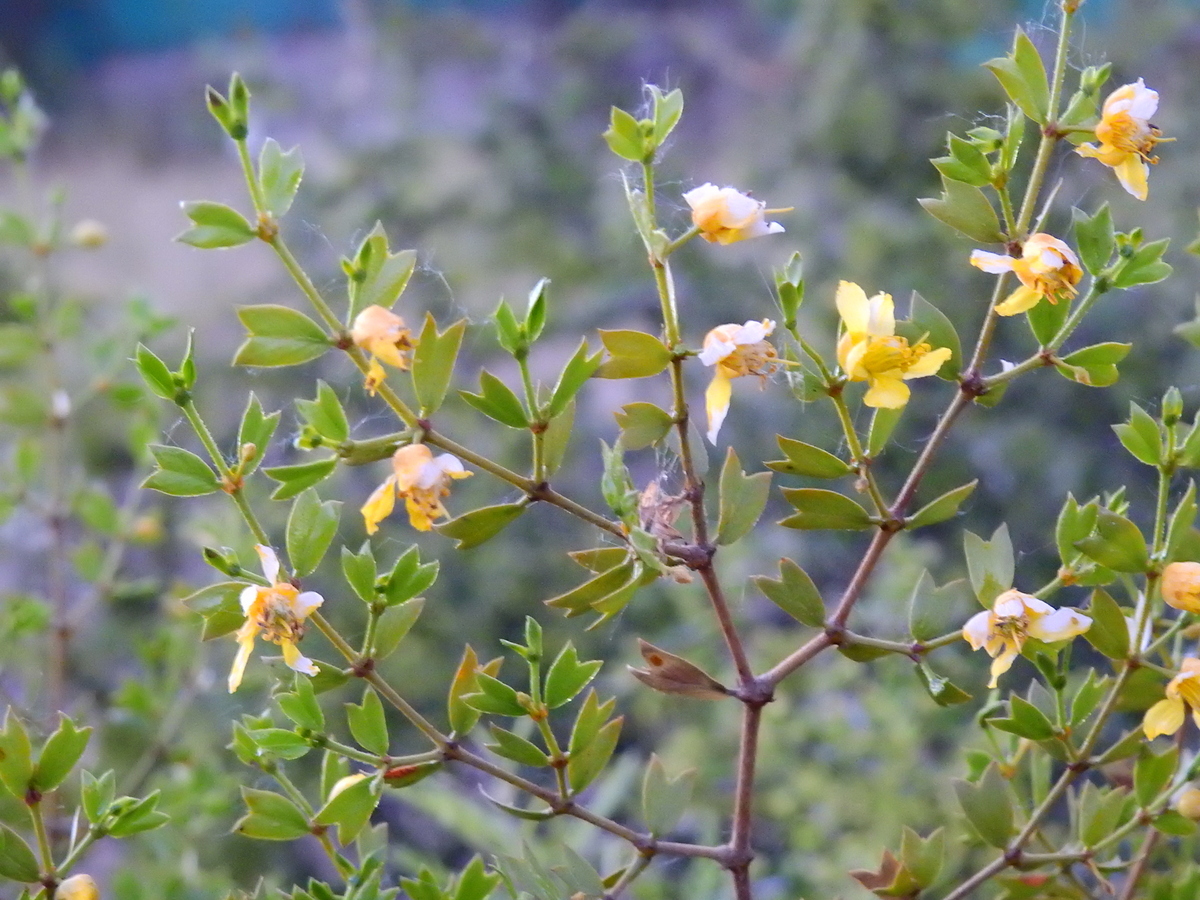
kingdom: Plantae
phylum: Tracheophyta
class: Magnoliopsida
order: Zygophyllales
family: Zygophyllaceae
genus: Larrea
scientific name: Larrea cuneifolia
